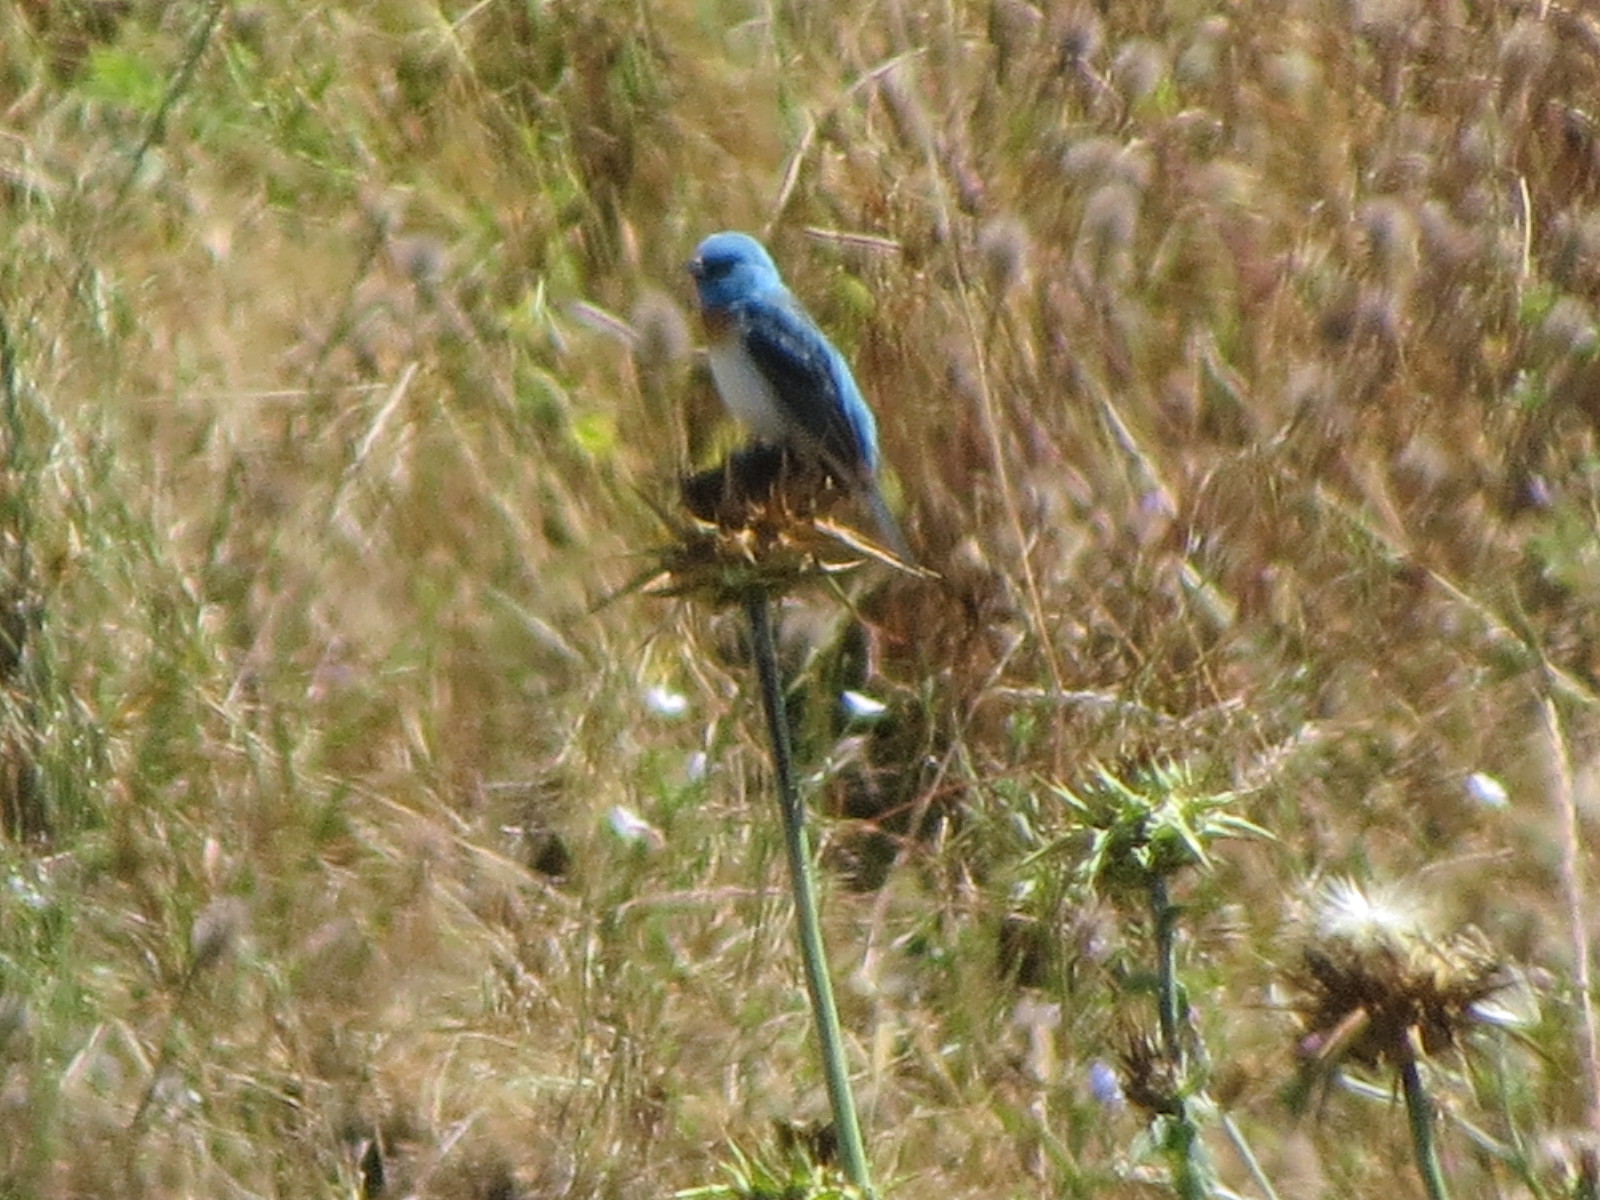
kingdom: Animalia
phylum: Chordata
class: Aves
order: Passeriformes
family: Cardinalidae
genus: Passerina
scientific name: Passerina amoena
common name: Lazuli bunting
